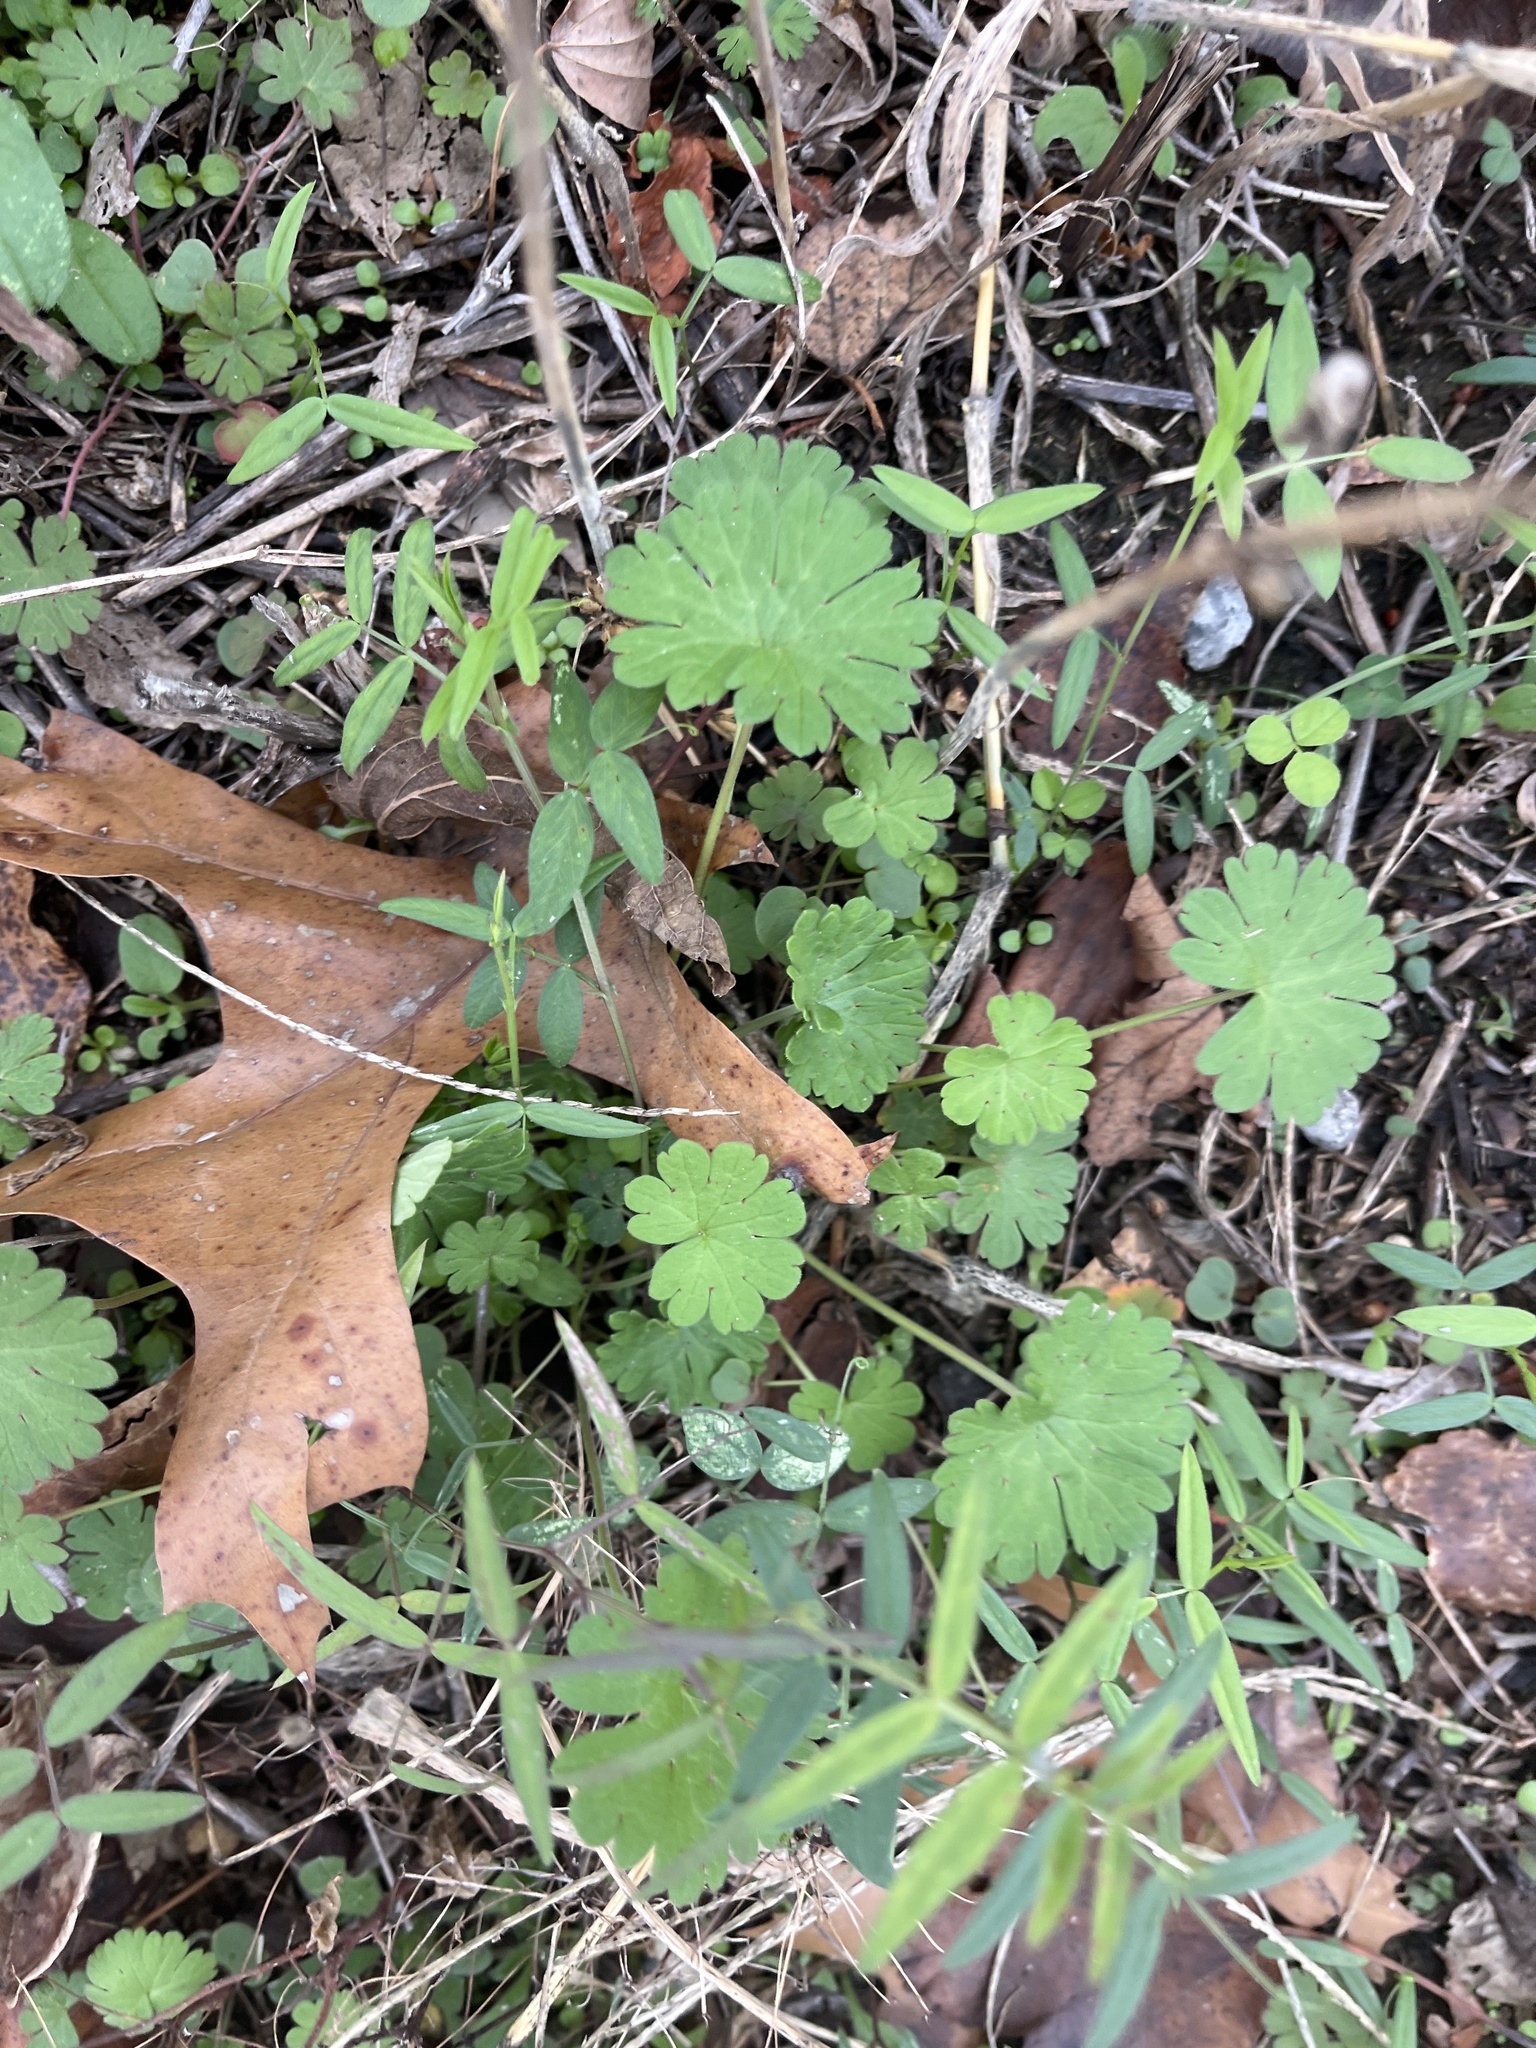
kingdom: Plantae
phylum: Tracheophyta
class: Magnoliopsida
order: Geraniales
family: Geraniaceae
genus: Geranium
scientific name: Geranium molle
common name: Dove's-foot crane's-bill
